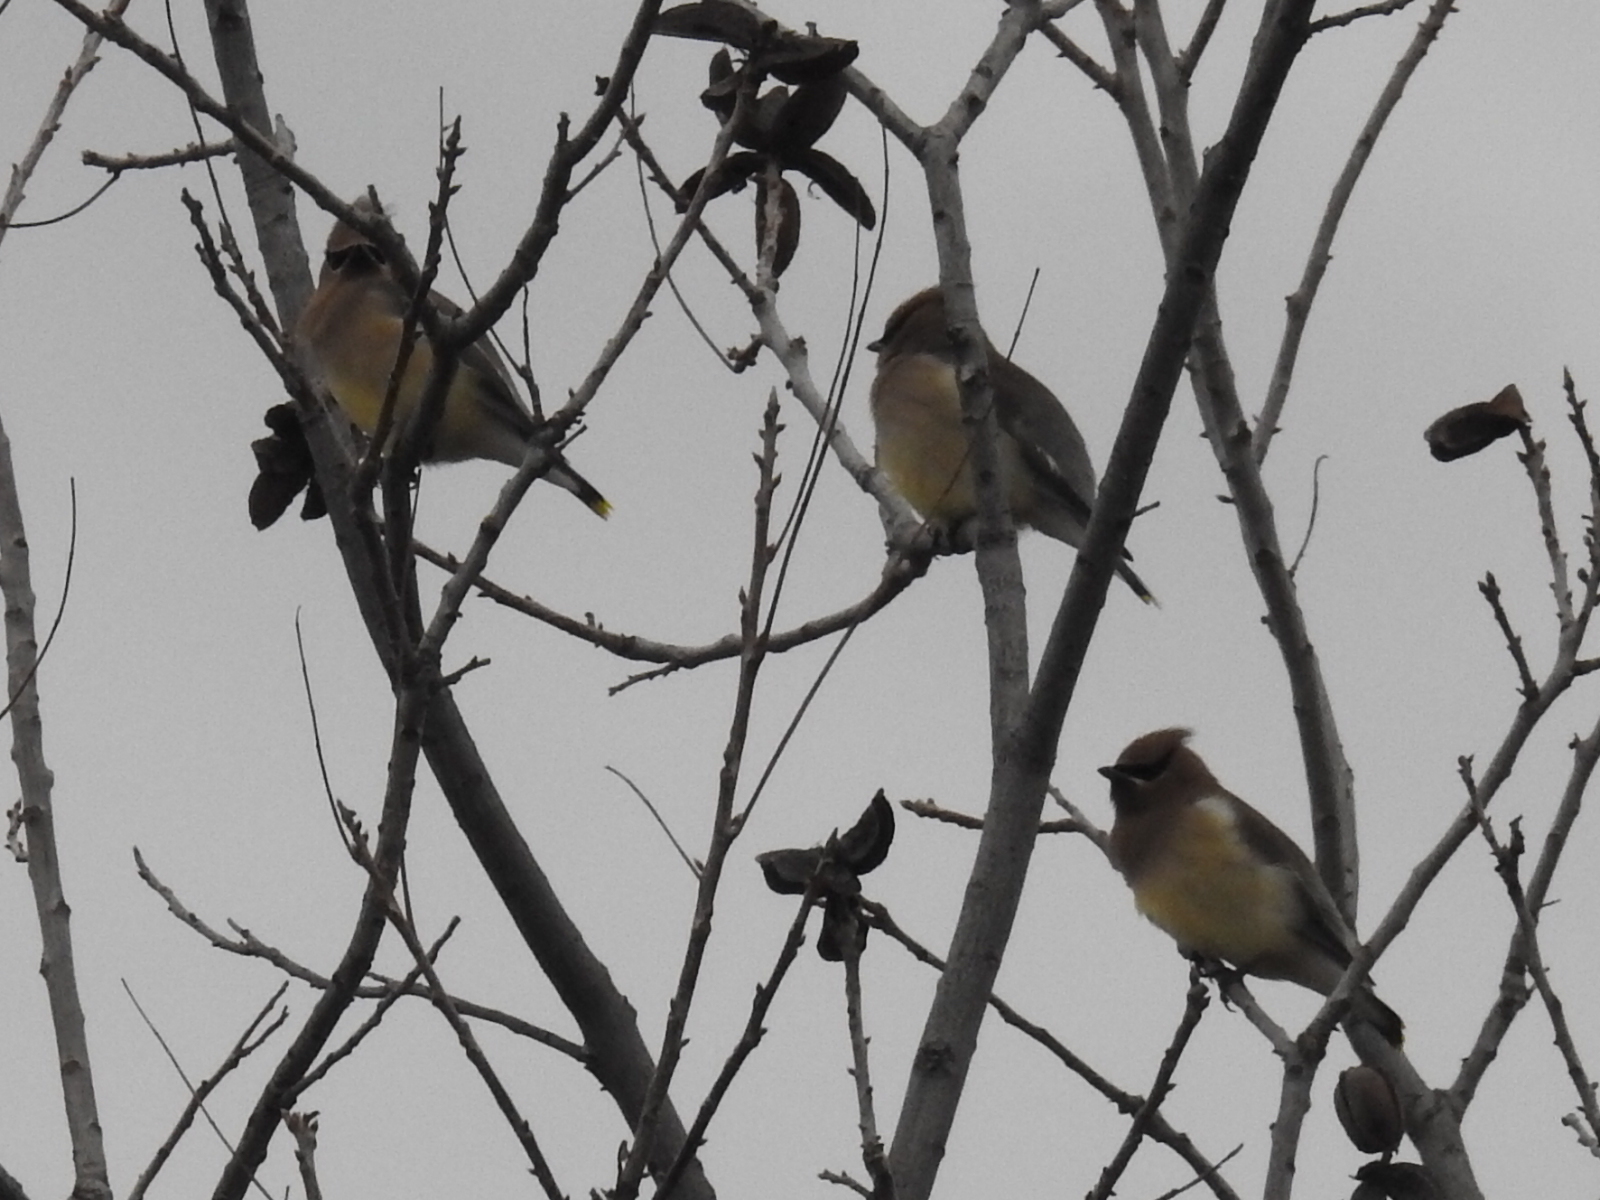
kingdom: Animalia
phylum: Chordata
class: Aves
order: Passeriformes
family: Bombycillidae
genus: Bombycilla
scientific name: Bombycilla cedrorum
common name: Cedar waxwing
